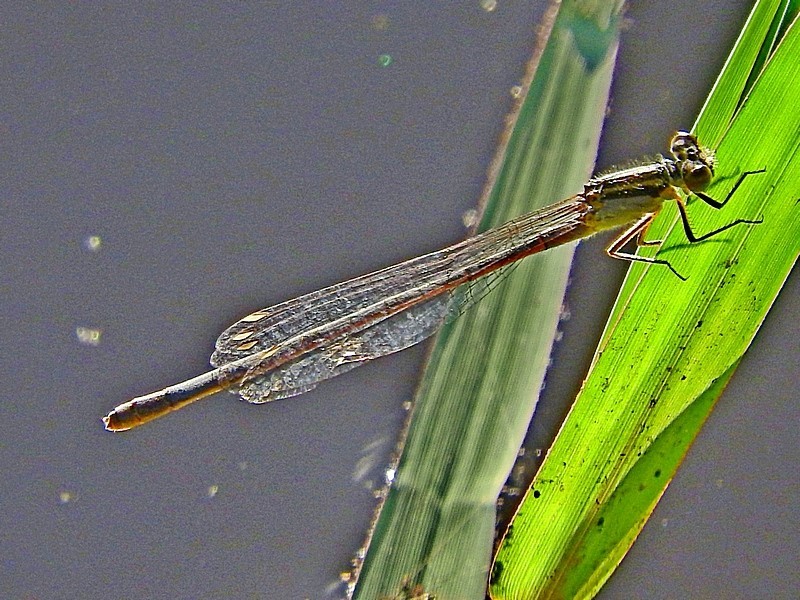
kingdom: Animalia
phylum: Arthropoda
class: Insecta
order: Odonata
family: Coenagrionidae
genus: Ischnura
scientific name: Ischnura heterosticta
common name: Common bluetail
